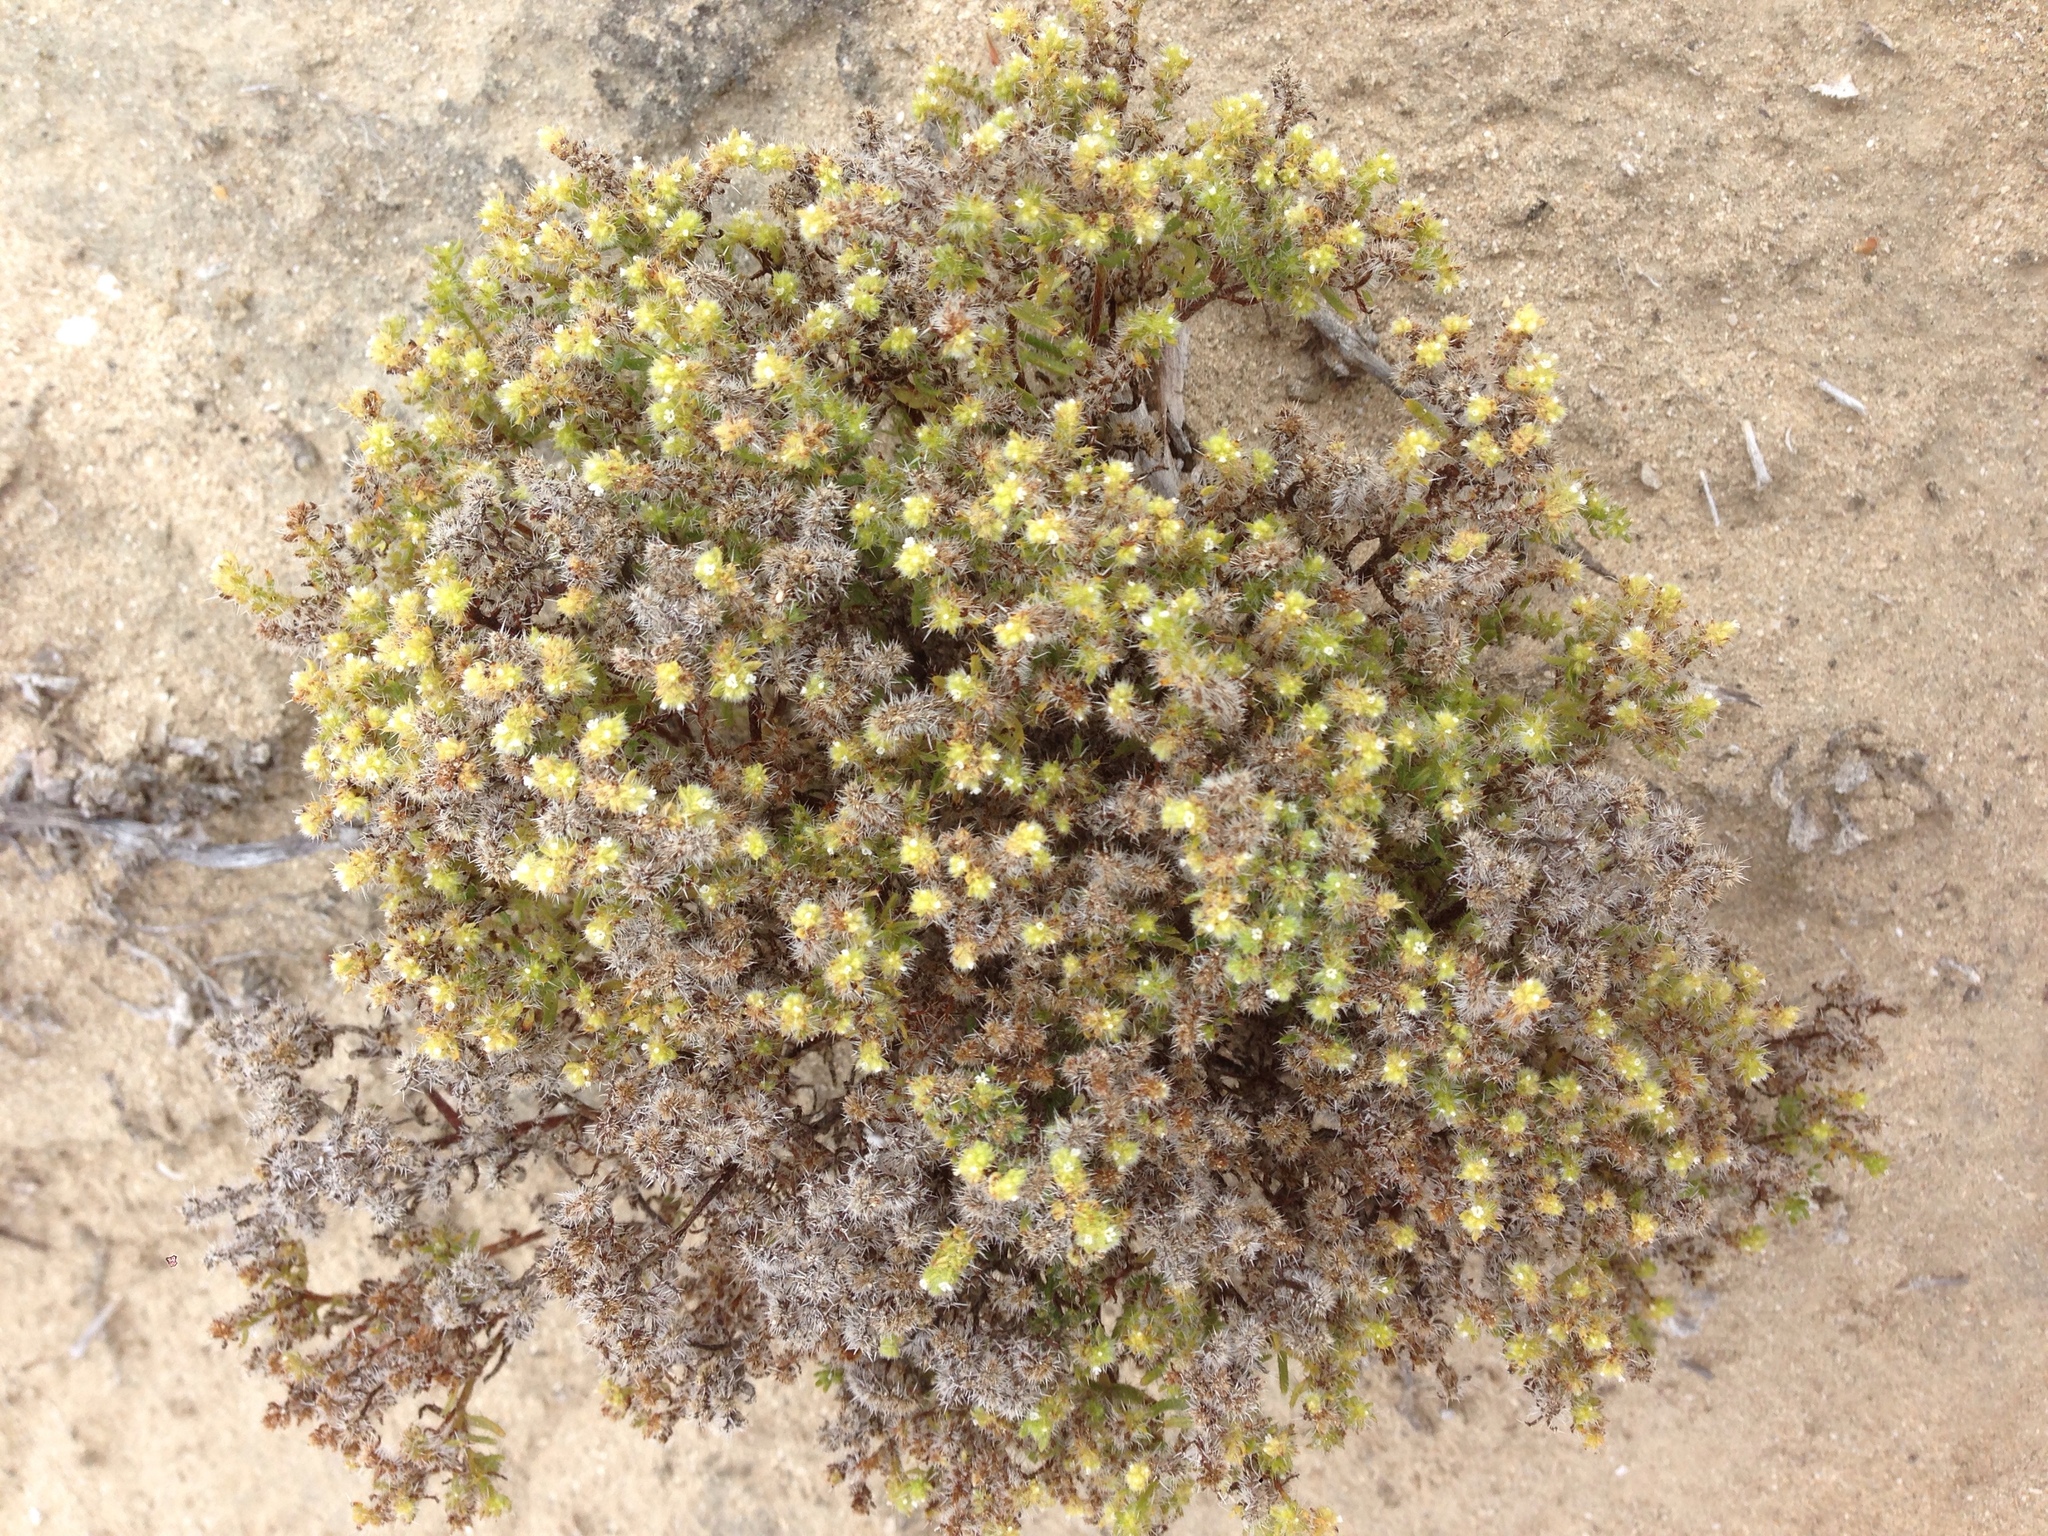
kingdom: Plantae
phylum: Tracheophyta
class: Magnoliopsida
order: Boraginales
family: Boraginaceae
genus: Cryptantha
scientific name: Cryptantha maritima
